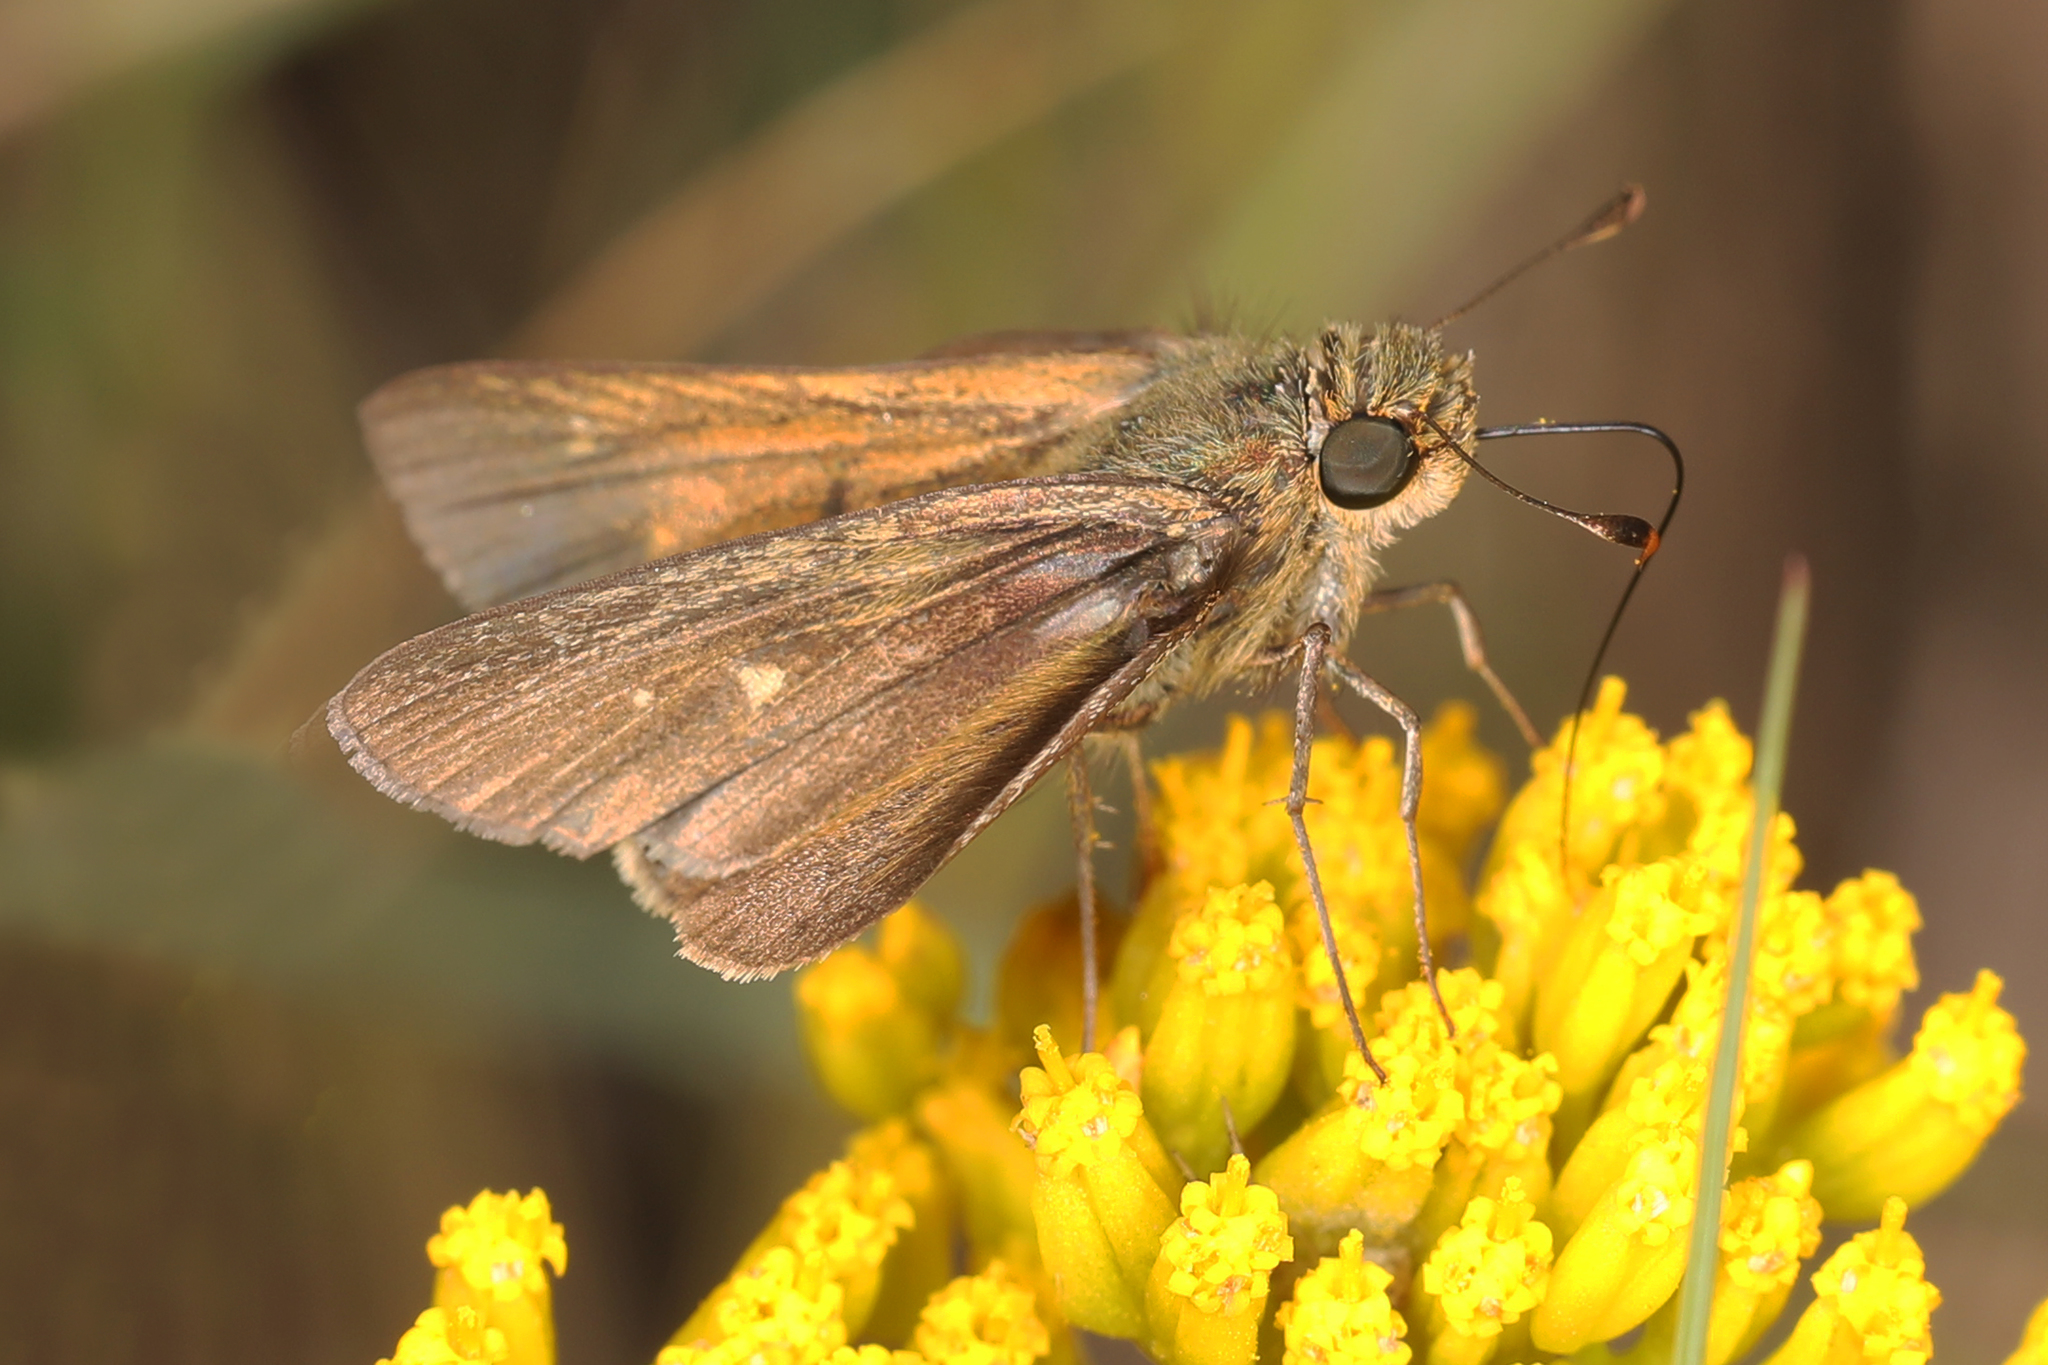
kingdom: Animalia
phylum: Arthropoda
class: Insecta
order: Lepidoptera
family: Hesperiidae
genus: Panoquina
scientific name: Panoquina panoquinoides
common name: Beach skipper
